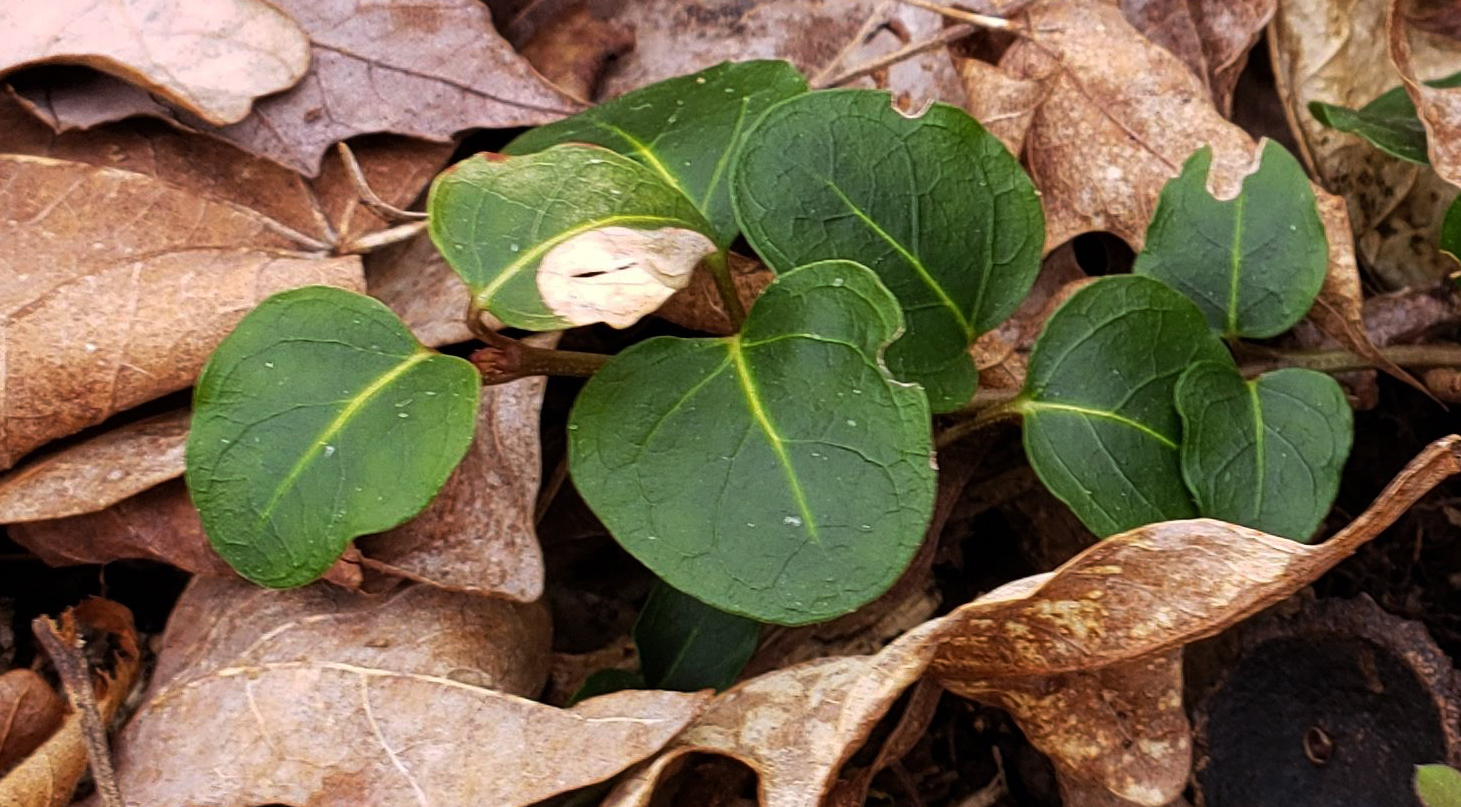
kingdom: Plantae
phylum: Tracheophyta
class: Magnoliopsida
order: Gentianales
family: Rubiaceae
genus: Mitchella
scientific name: Mitchella repens
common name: Partridge-berry
